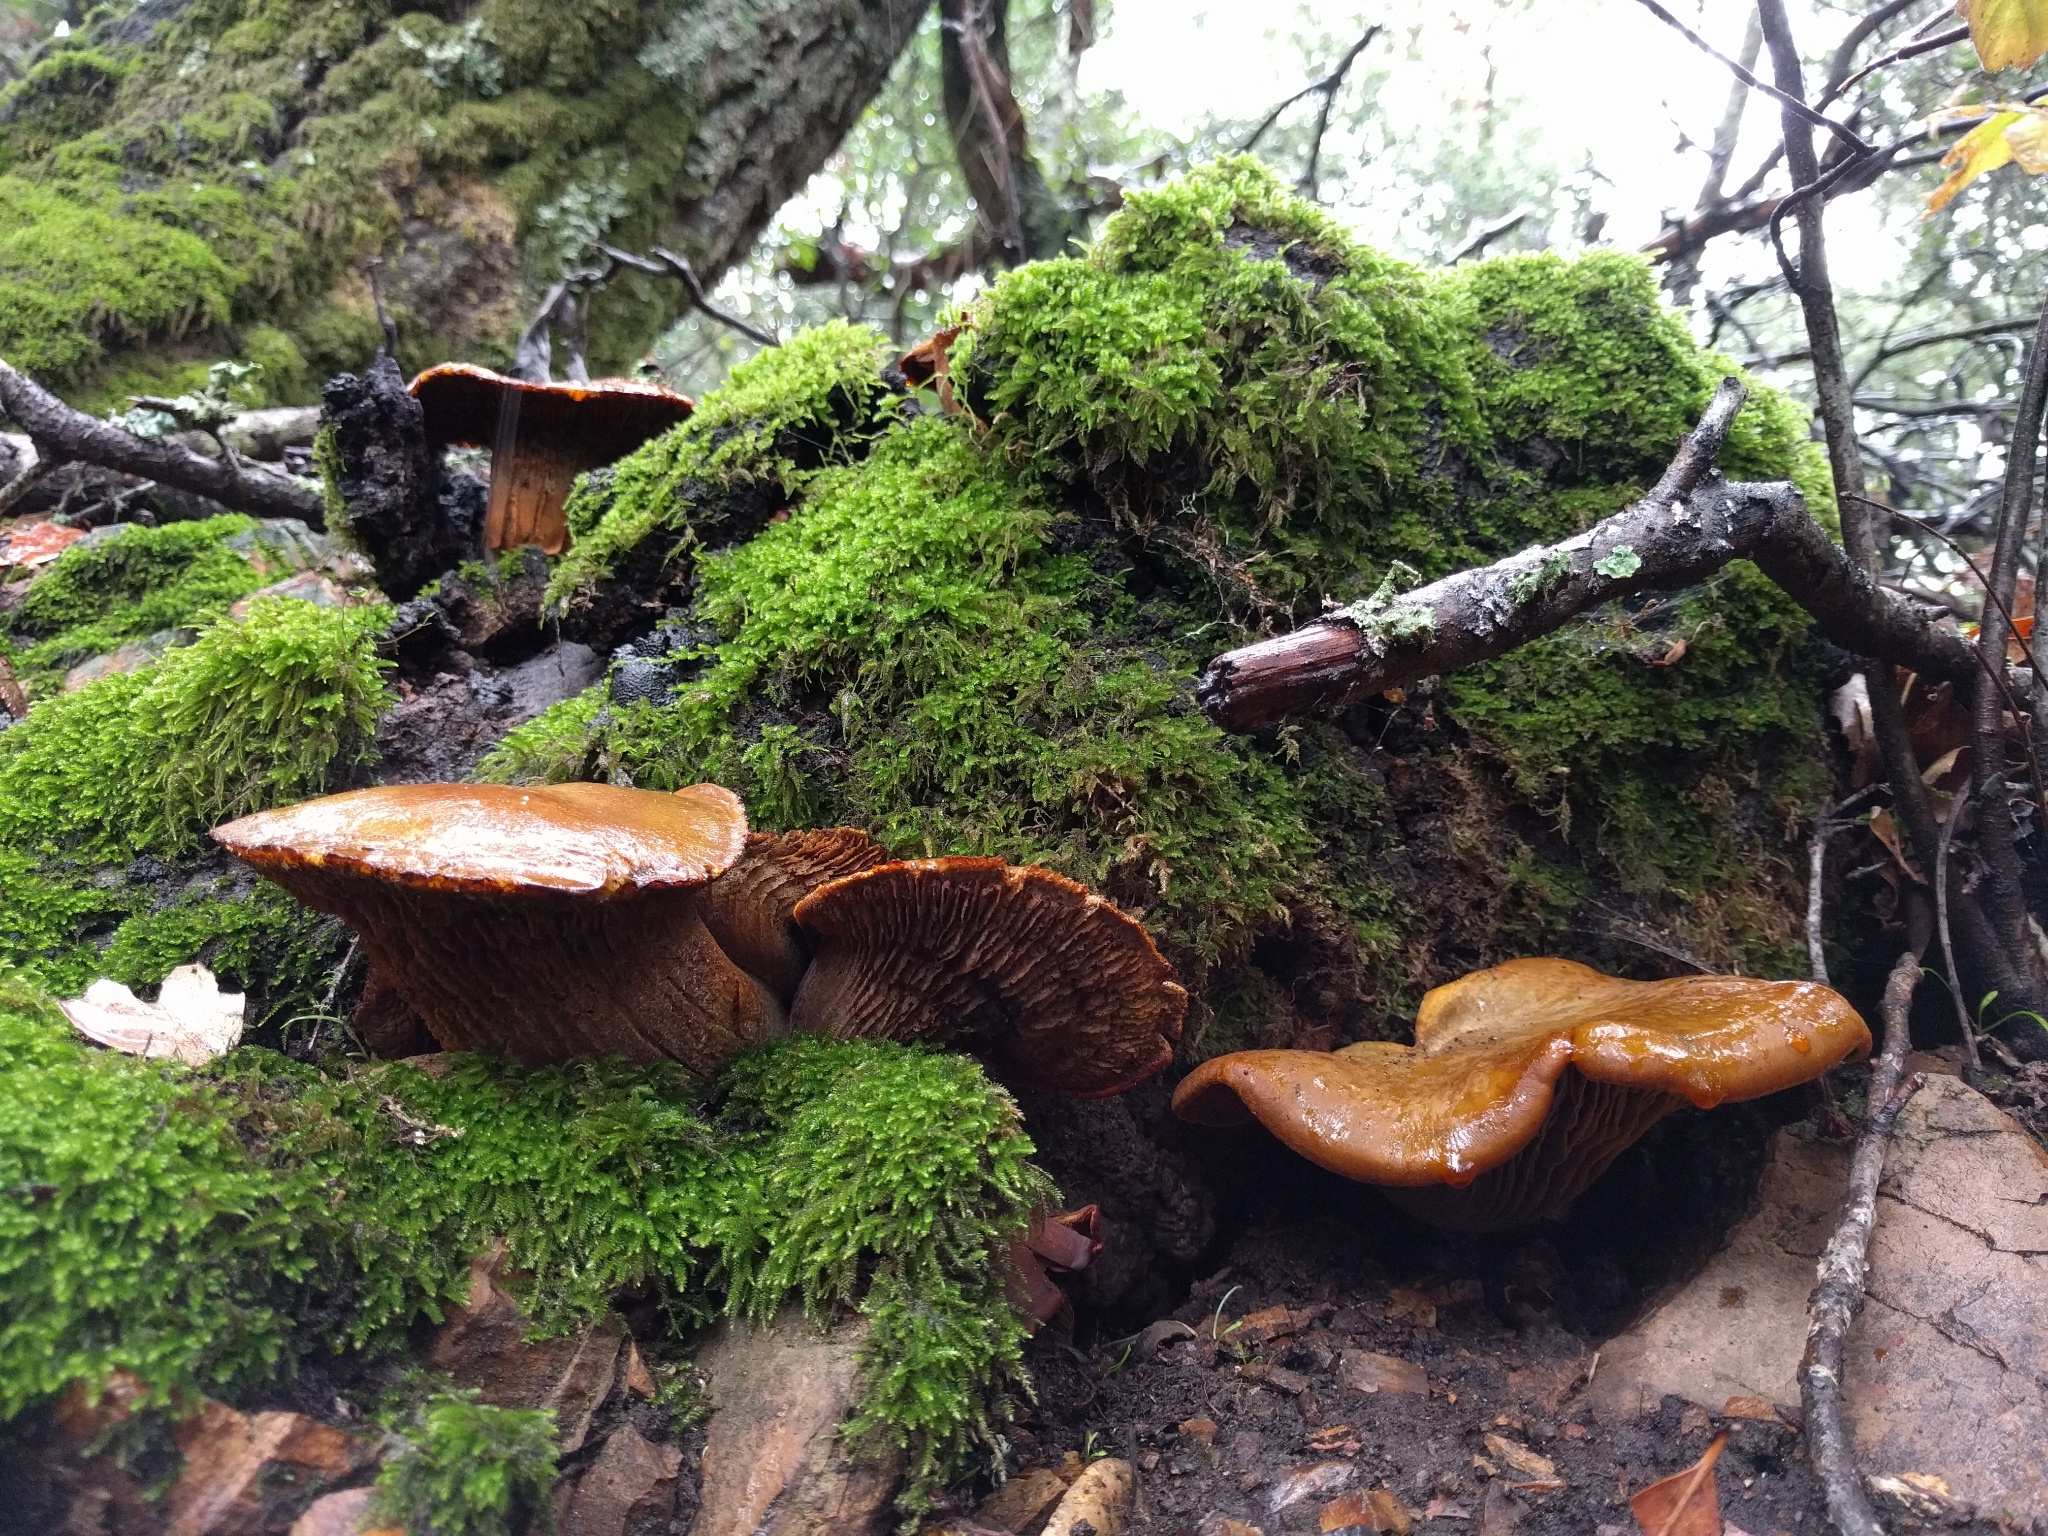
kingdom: Fungi
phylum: Basidiomycota
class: Agaricomycetes
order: Agaricales
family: Omphalotaceae
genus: Omphalotus
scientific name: Omphalotus olivascens
